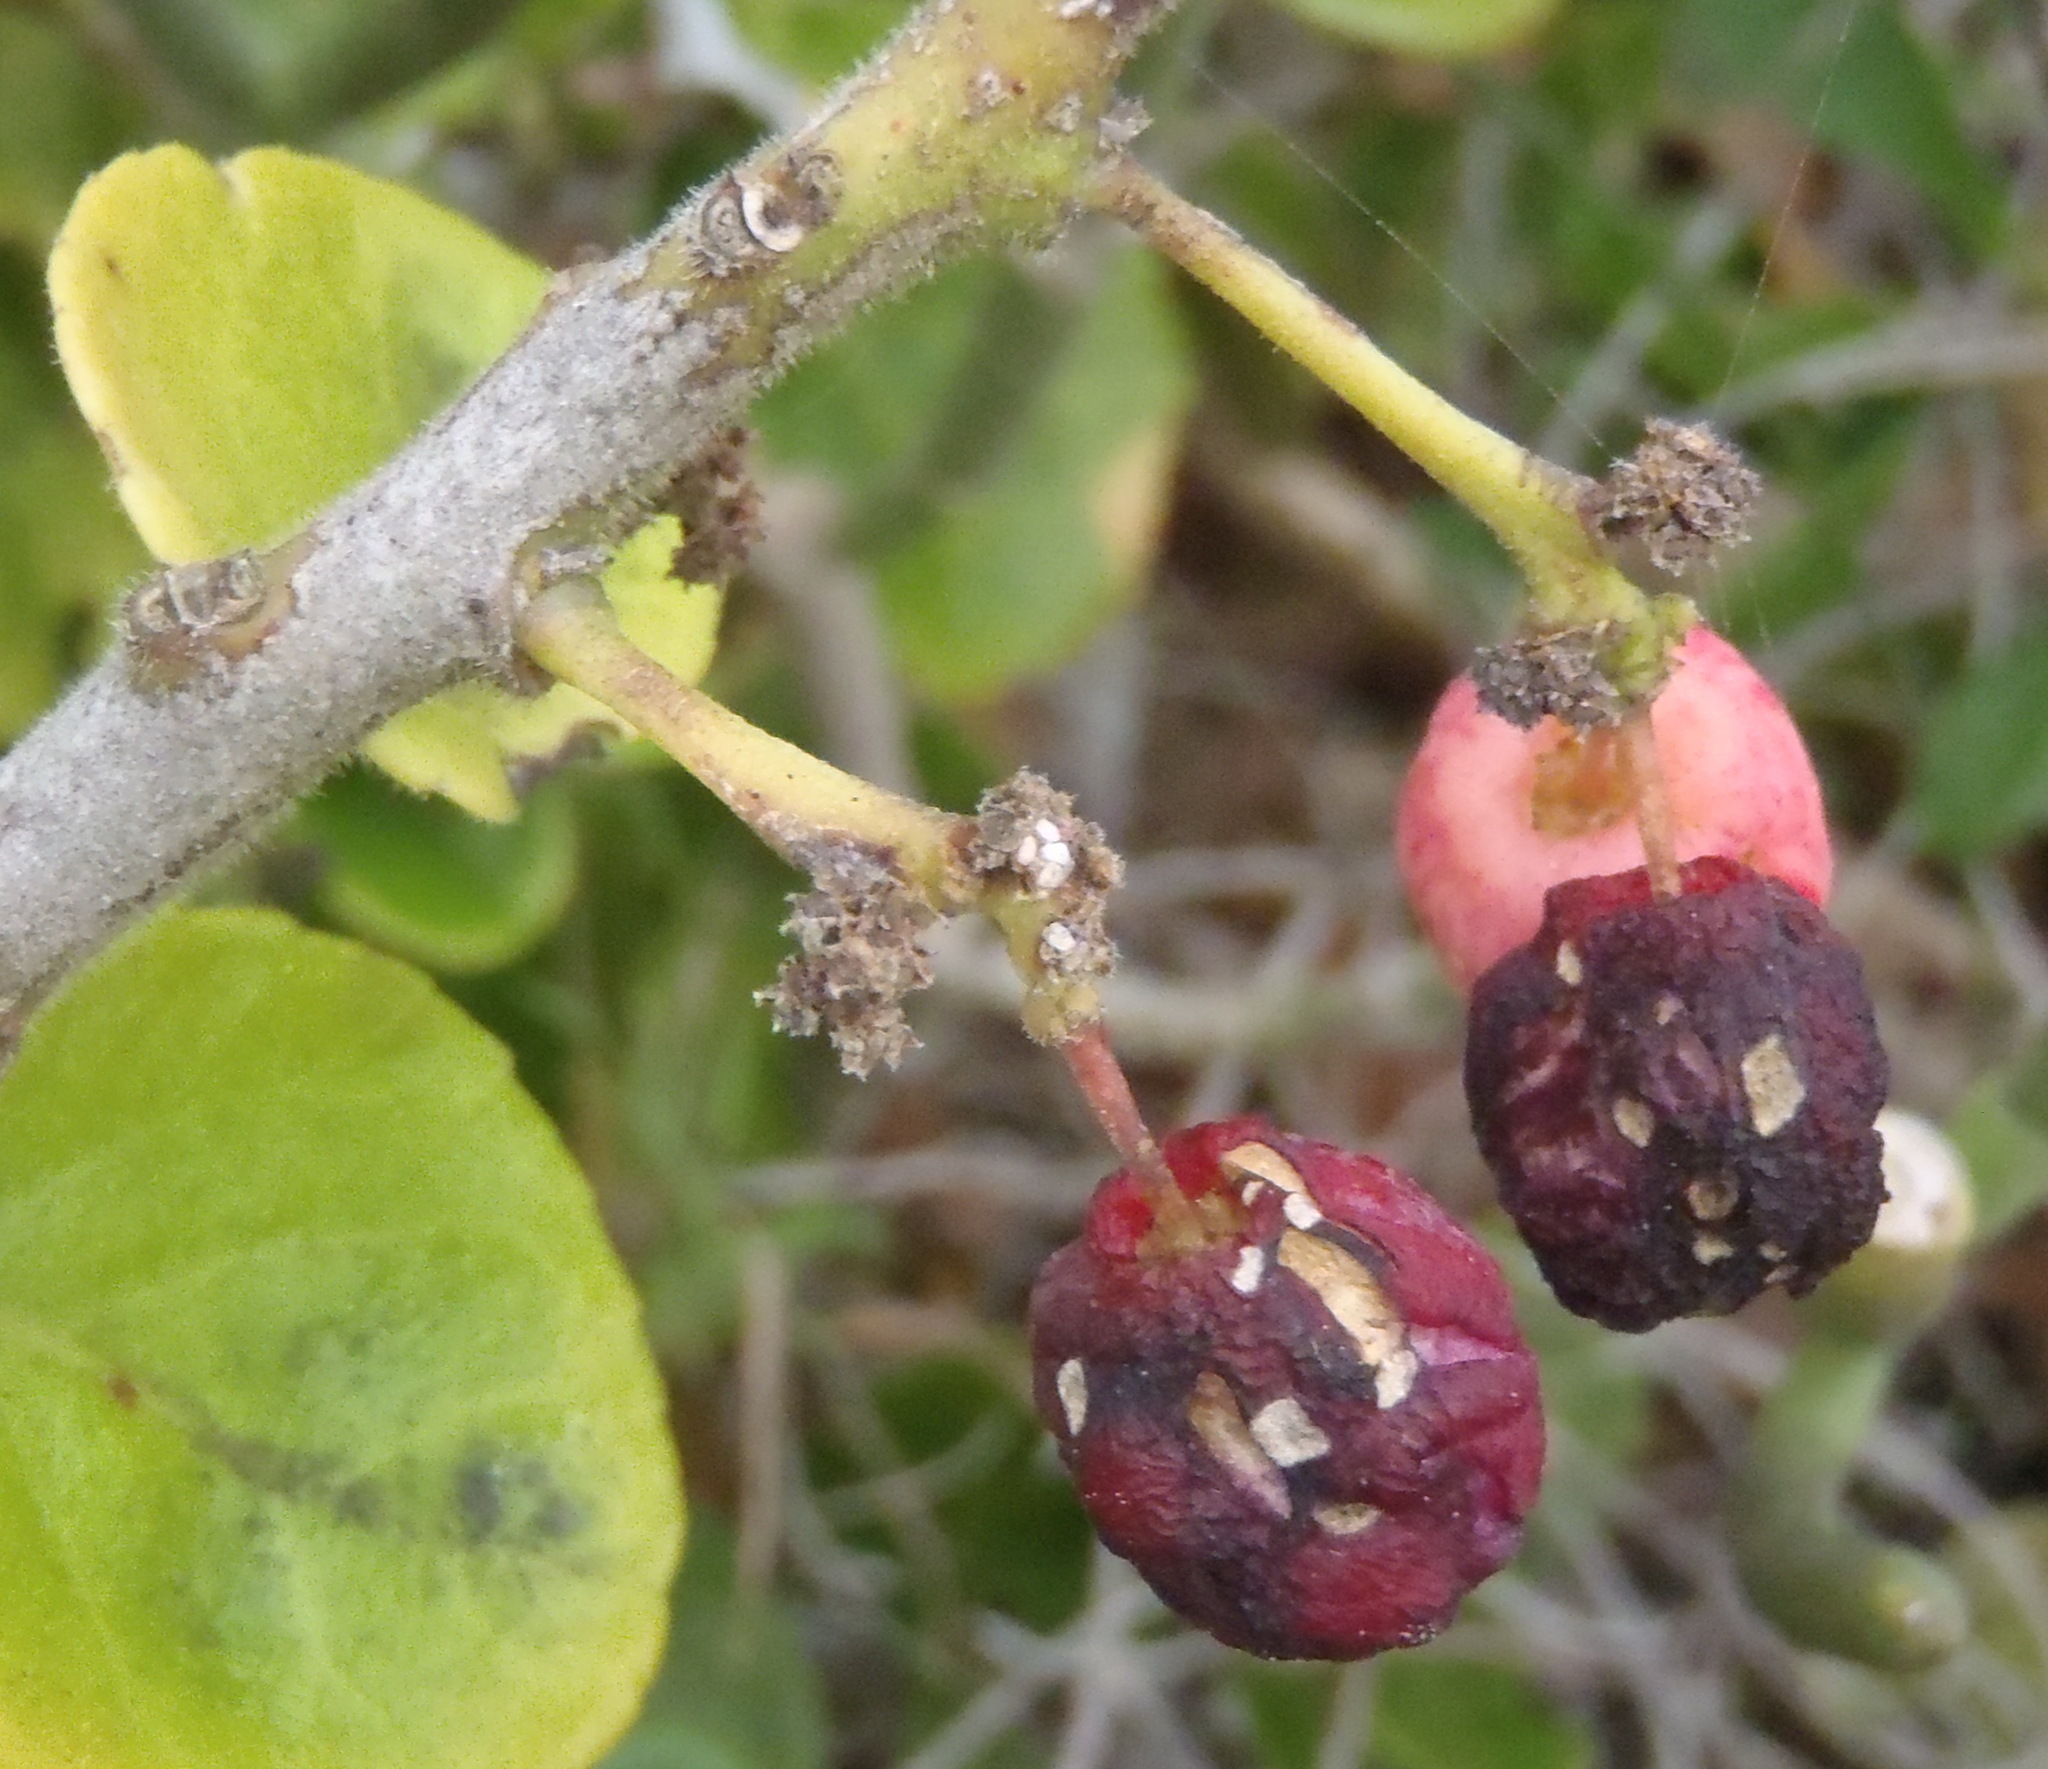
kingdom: Plantae
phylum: Tracheophyta
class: Magnoliopsida
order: Celastrales
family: Celastraceae
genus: Mystroxylon
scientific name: Mystroxylon aethiopicum
